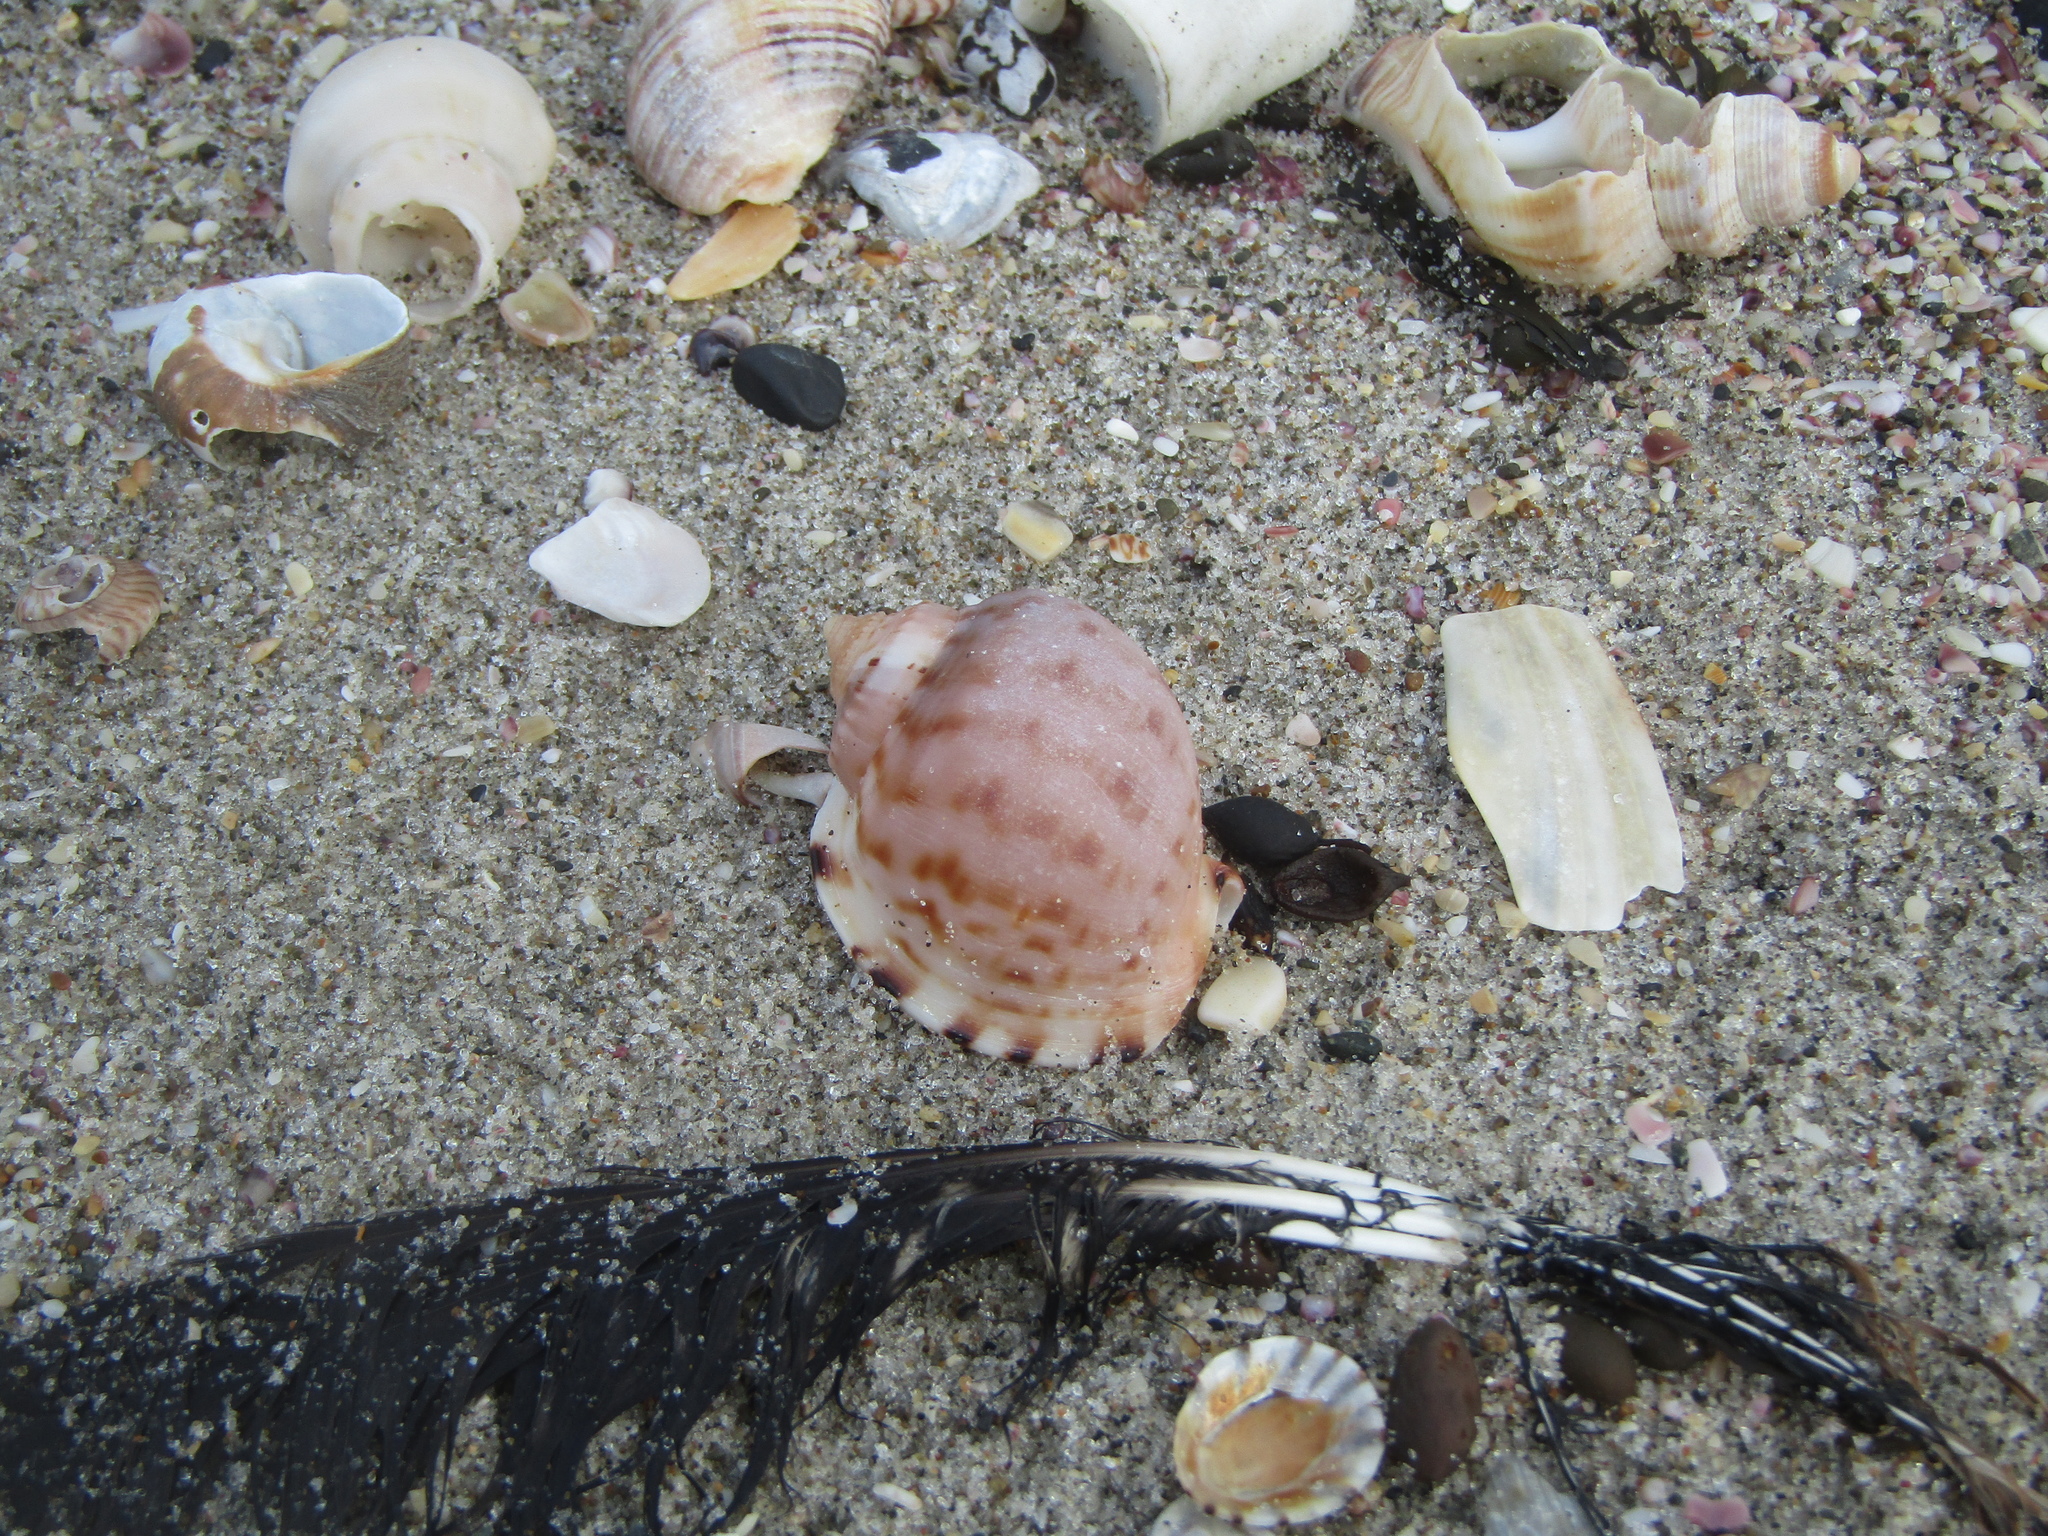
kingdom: Animalia
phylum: Mollusca
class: Gastropoda
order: Littorinimorpha
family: Cassidae
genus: Semicassis
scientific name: Semicassis pyrum
